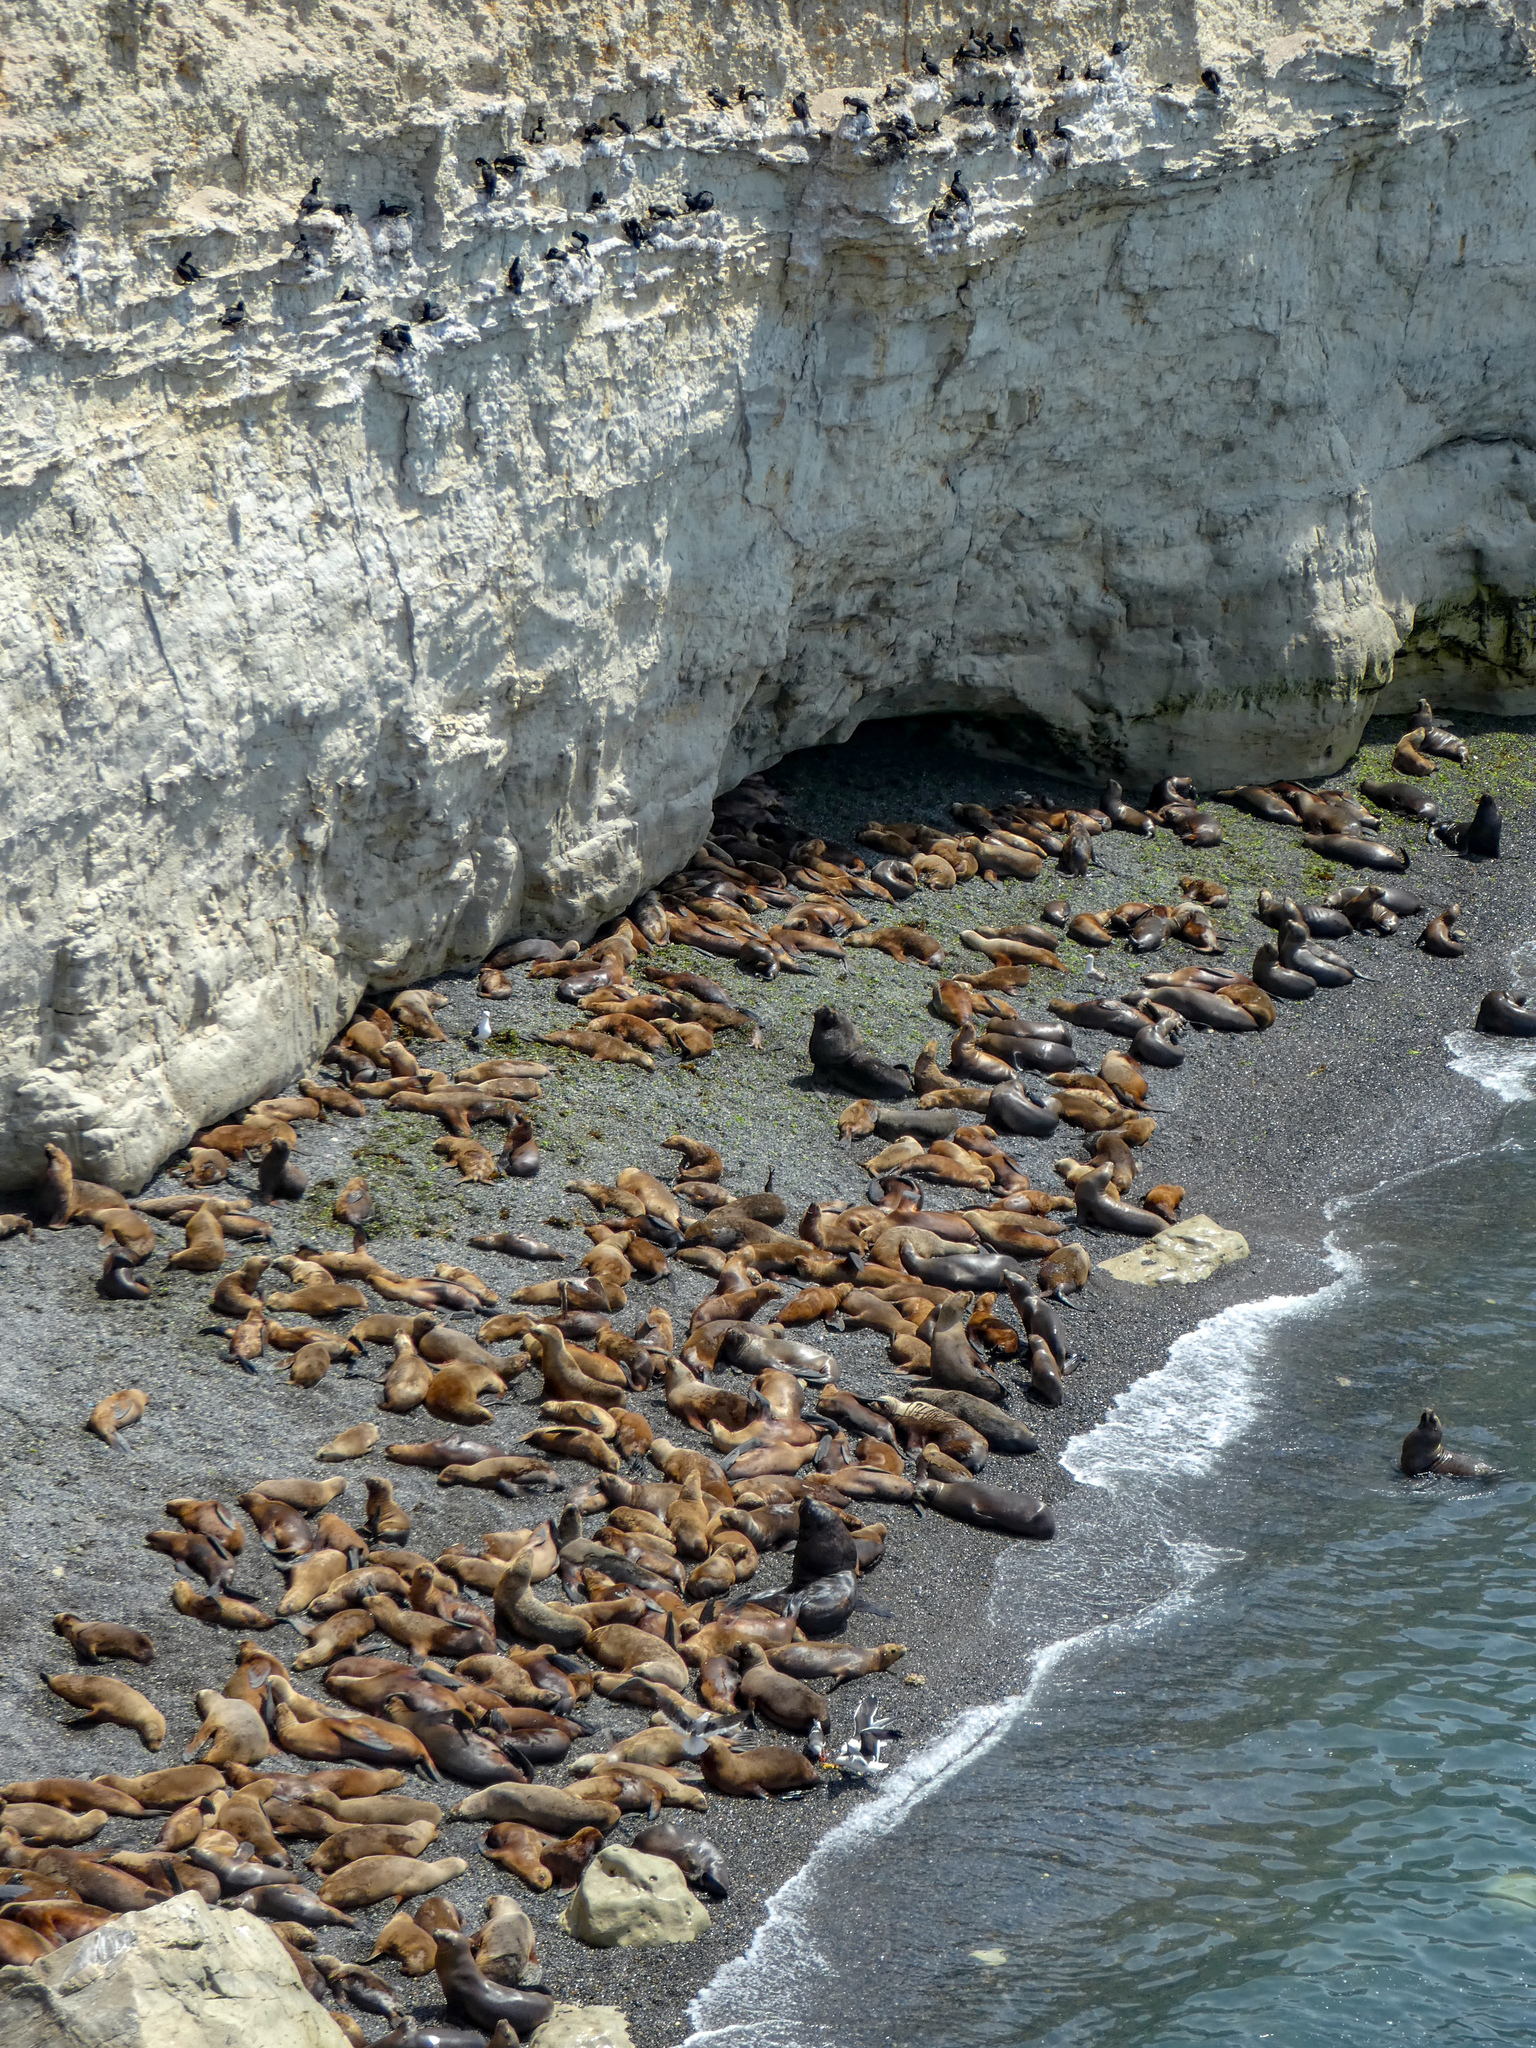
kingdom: Animalia
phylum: Chordata
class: Mammalia
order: Carnivora
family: Otariidae
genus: Otaria
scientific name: Otaria byronia
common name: South american sea lion
